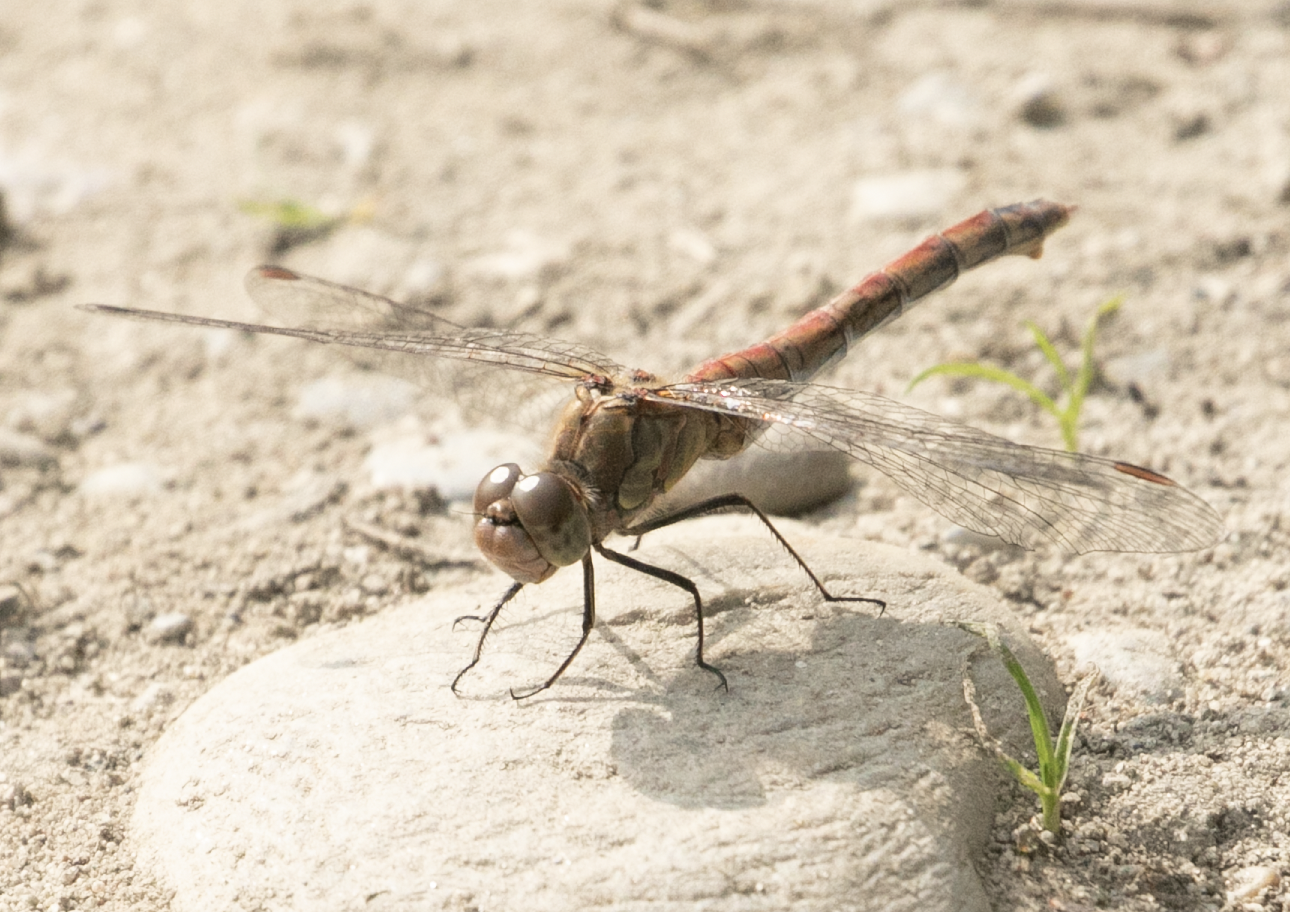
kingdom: Animalia
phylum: Arthropoda
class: Insecta
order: Odonata
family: Libellulidae
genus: Sympetrum
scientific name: Sympetrum striolatum
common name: Common darter
